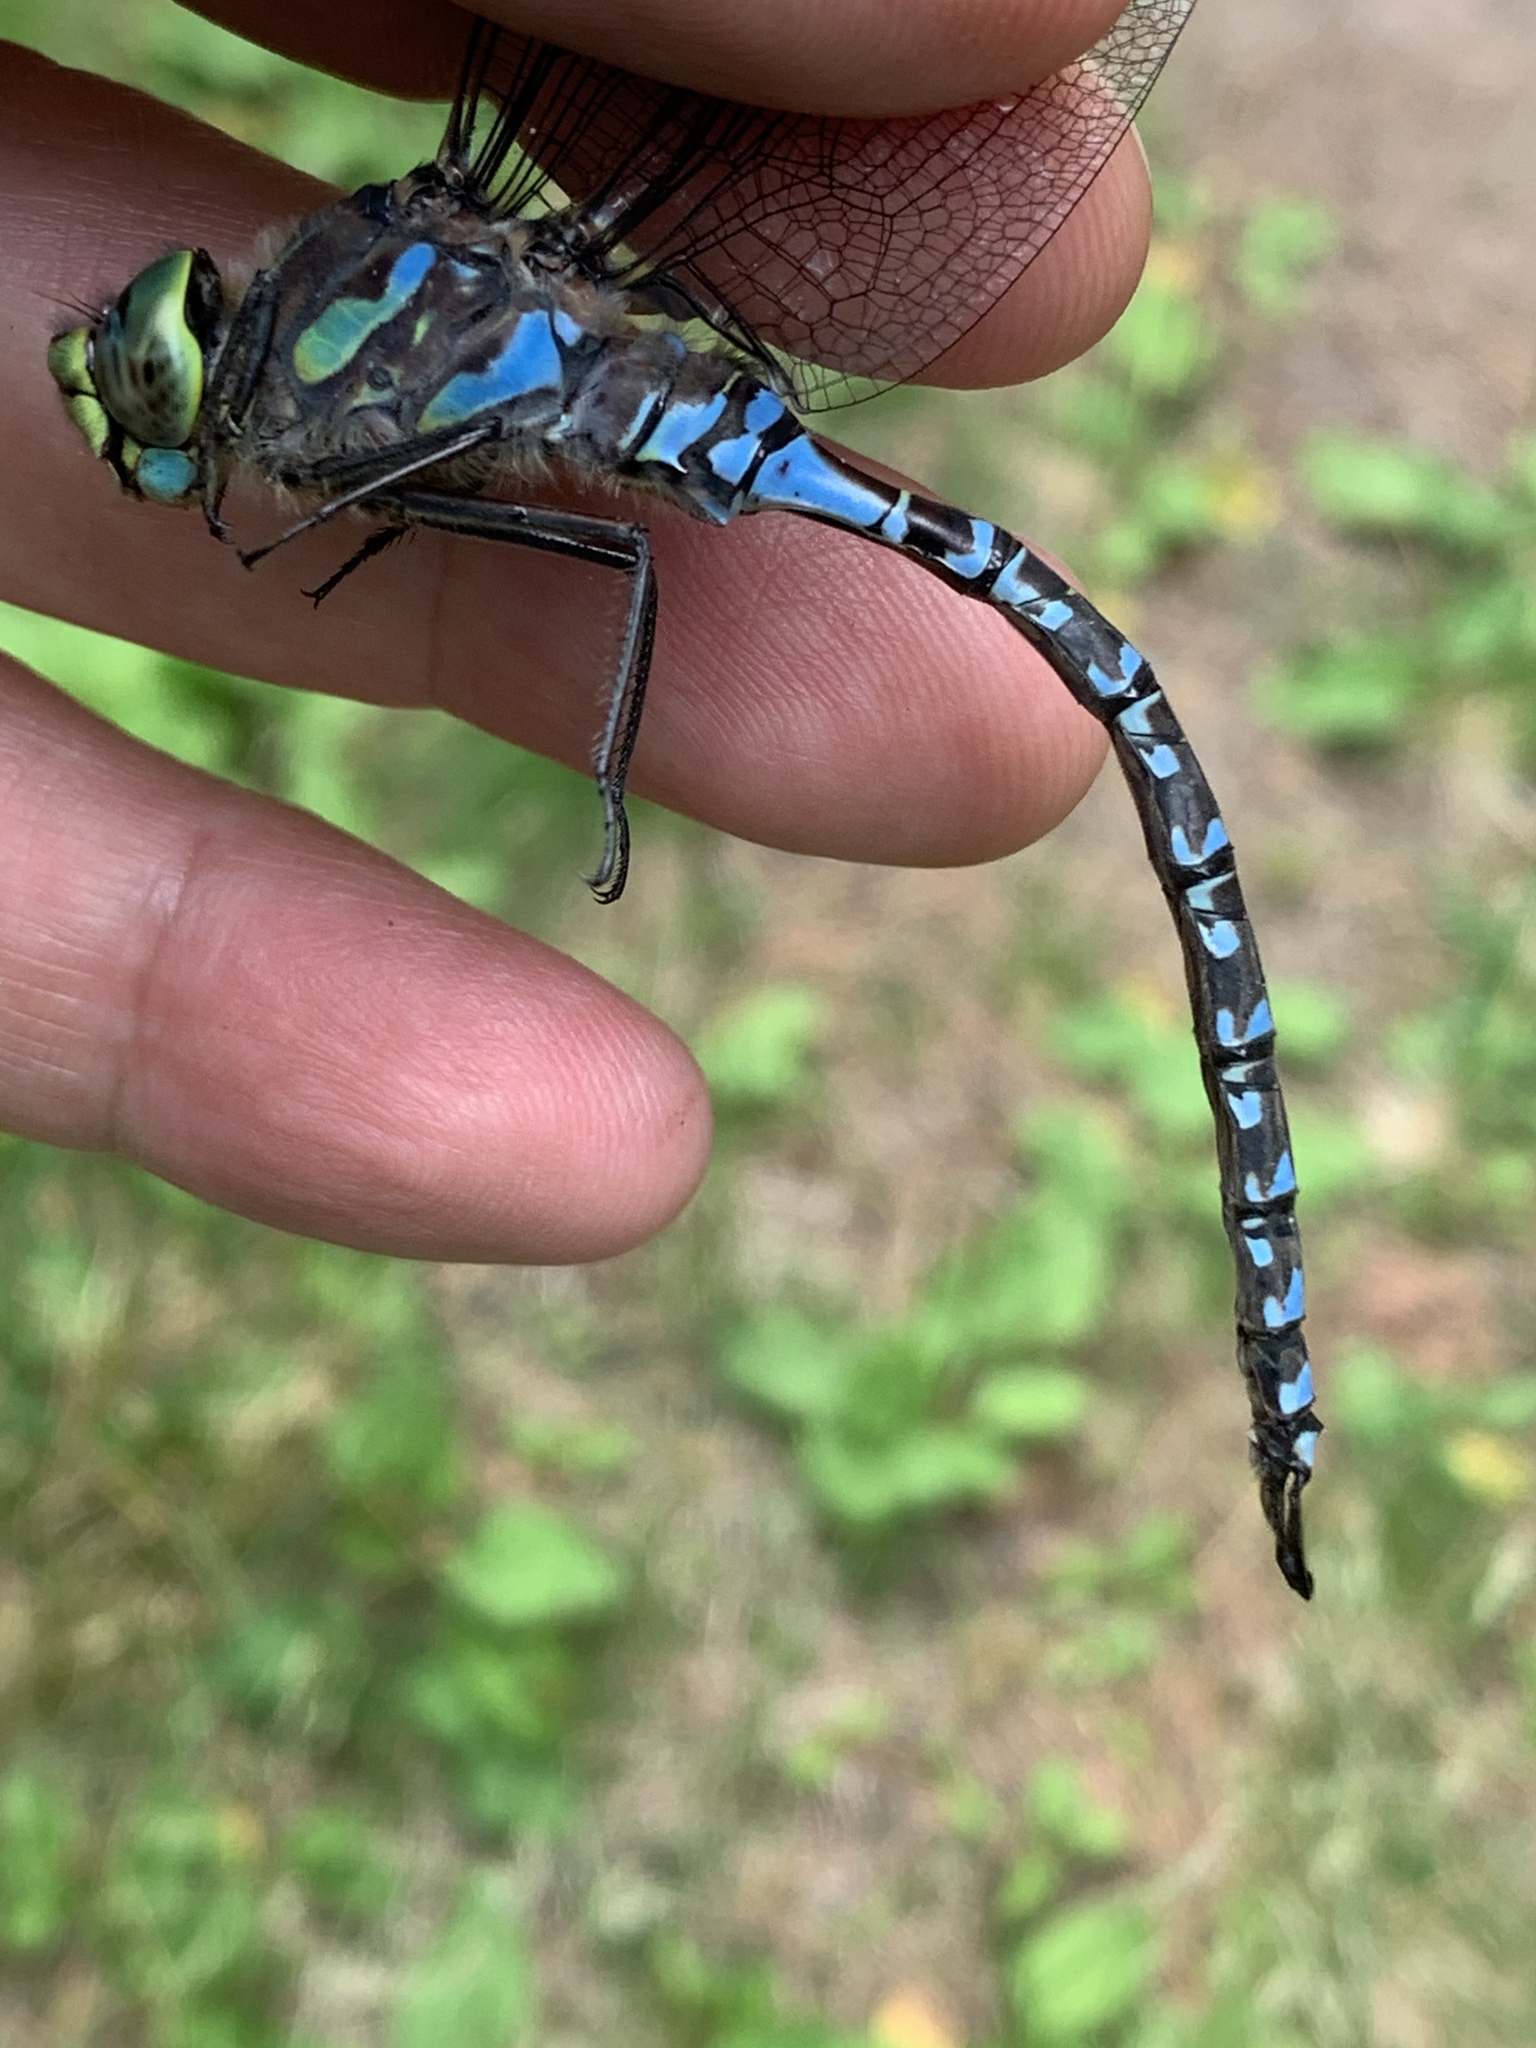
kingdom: Animalia
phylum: Arthropoda
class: Insecta
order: Odonata
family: Aeshnidae
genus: Aeshna
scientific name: Aeshna eremita
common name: Lake darner
